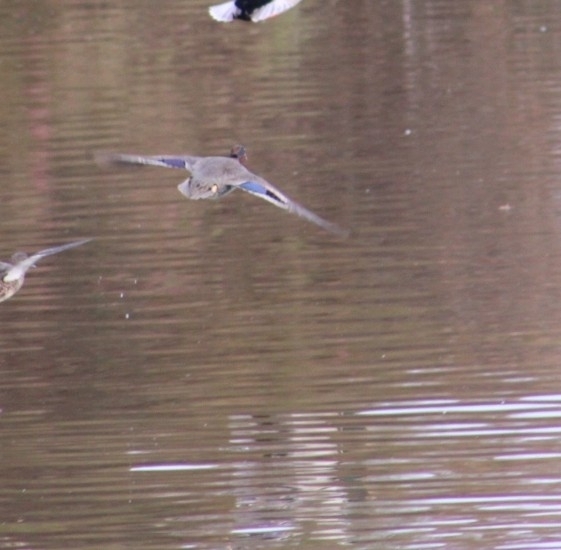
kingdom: Animalia
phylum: Chordata
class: Aves
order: Anseriformes
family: Anatidae
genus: Anas
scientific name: Anas crecca
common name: Eurasian teal
